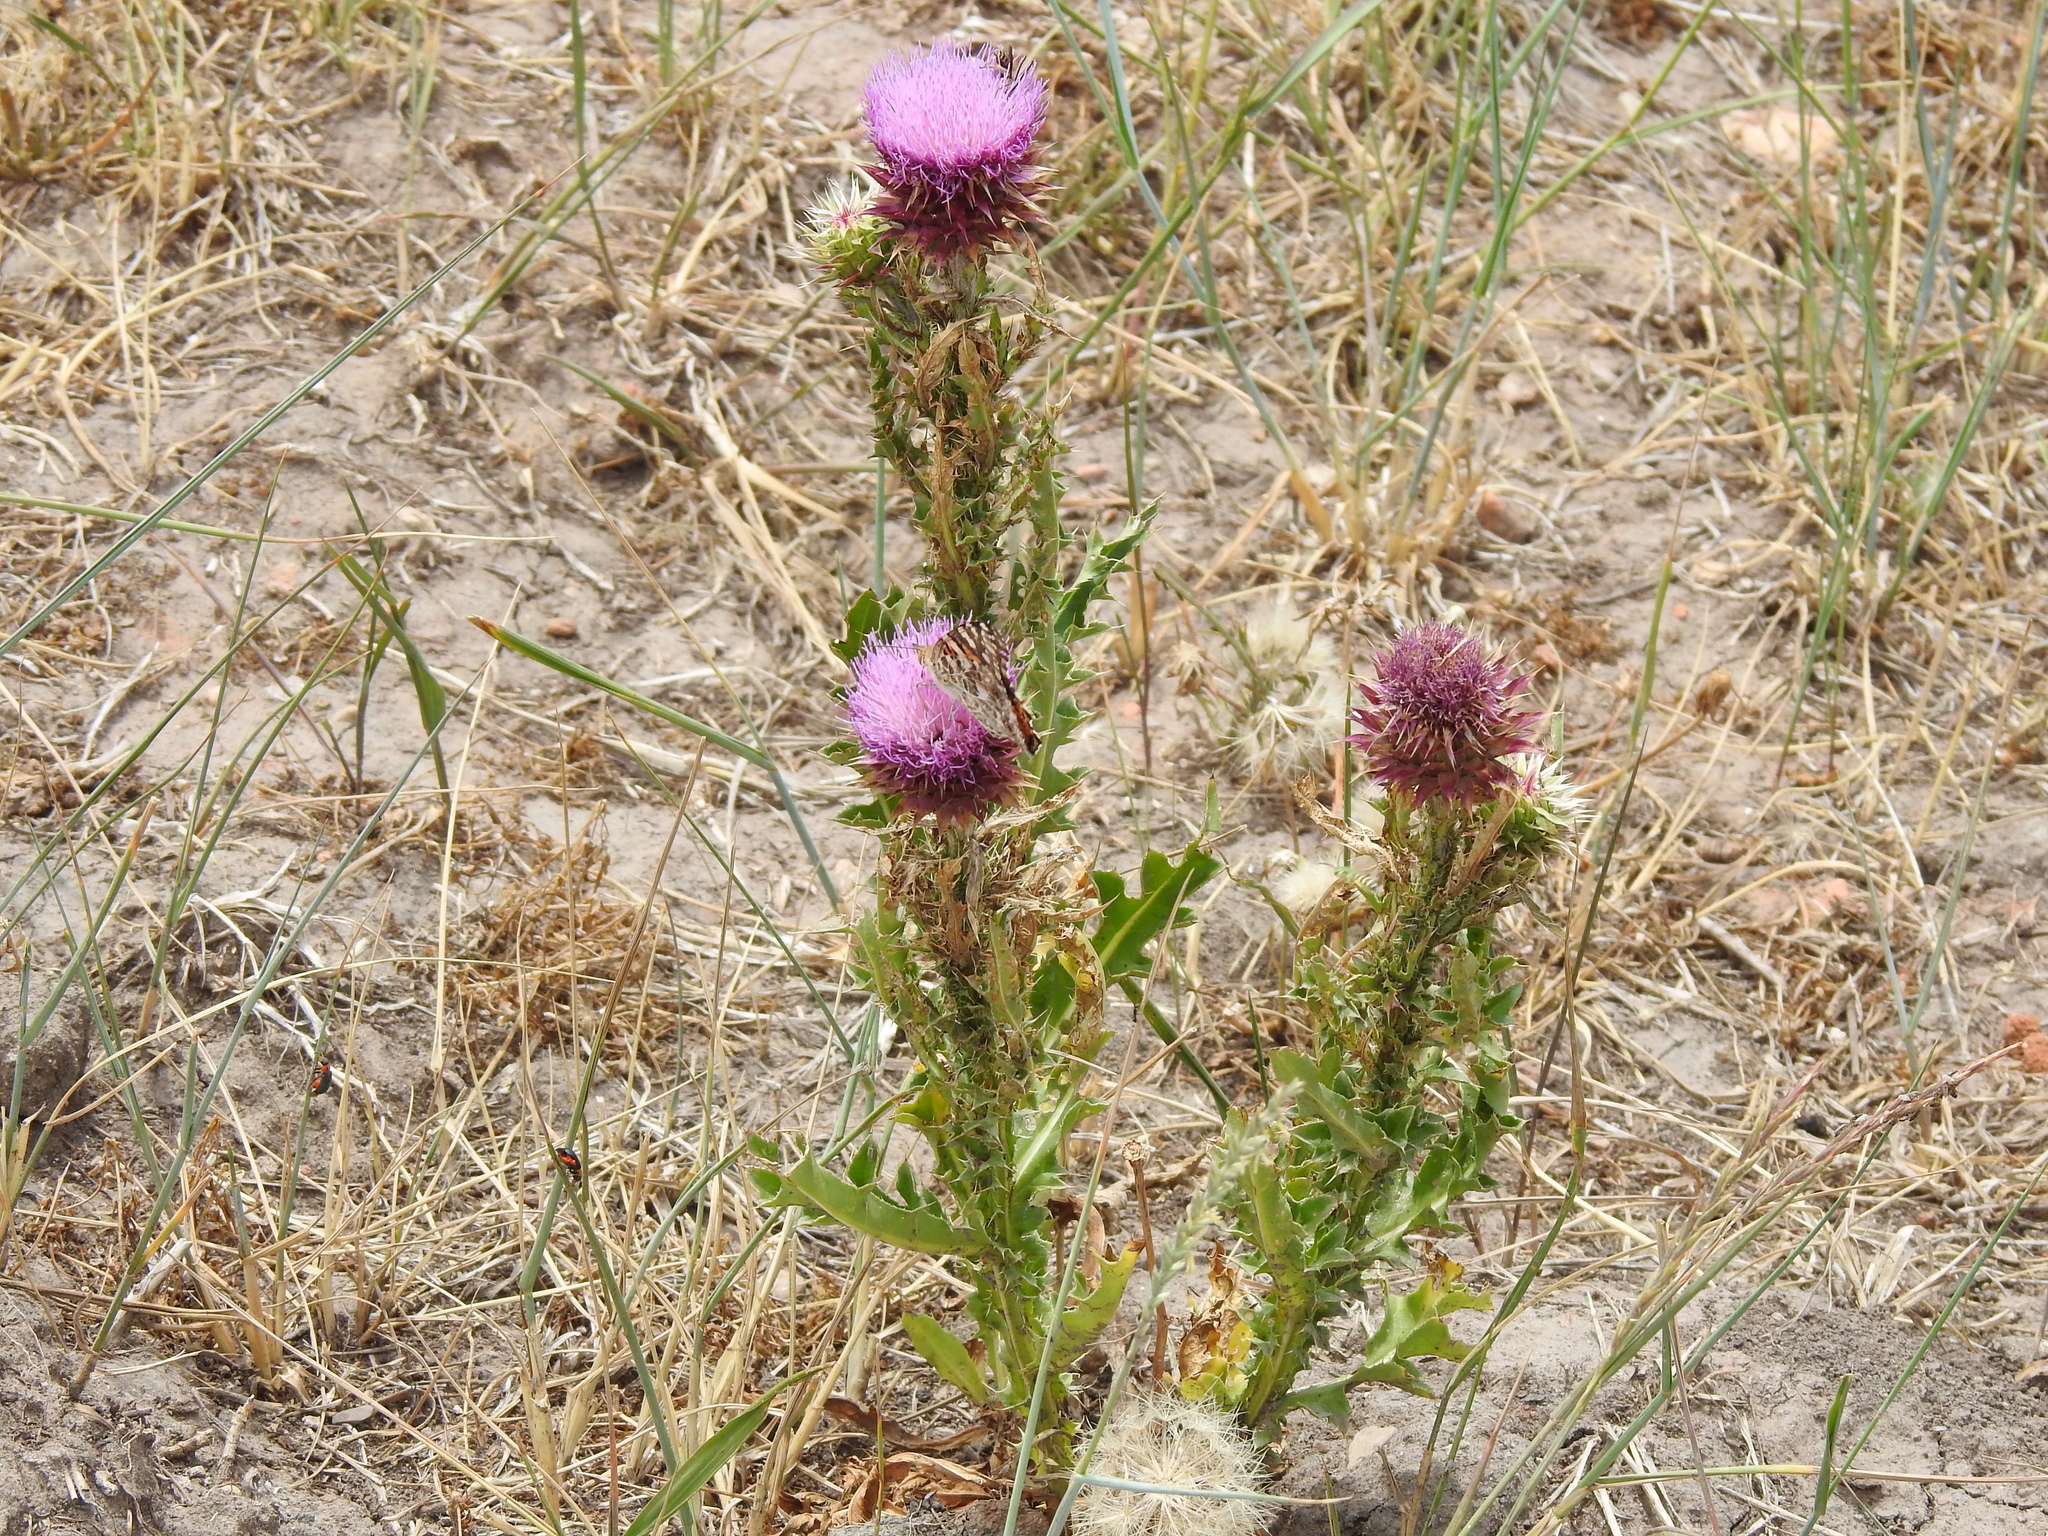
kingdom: Animalia
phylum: Arthropoda
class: Insecta
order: Lepidoptera
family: Nymphalidae
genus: Vanessa
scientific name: Vanessa cardui
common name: Painted lady
